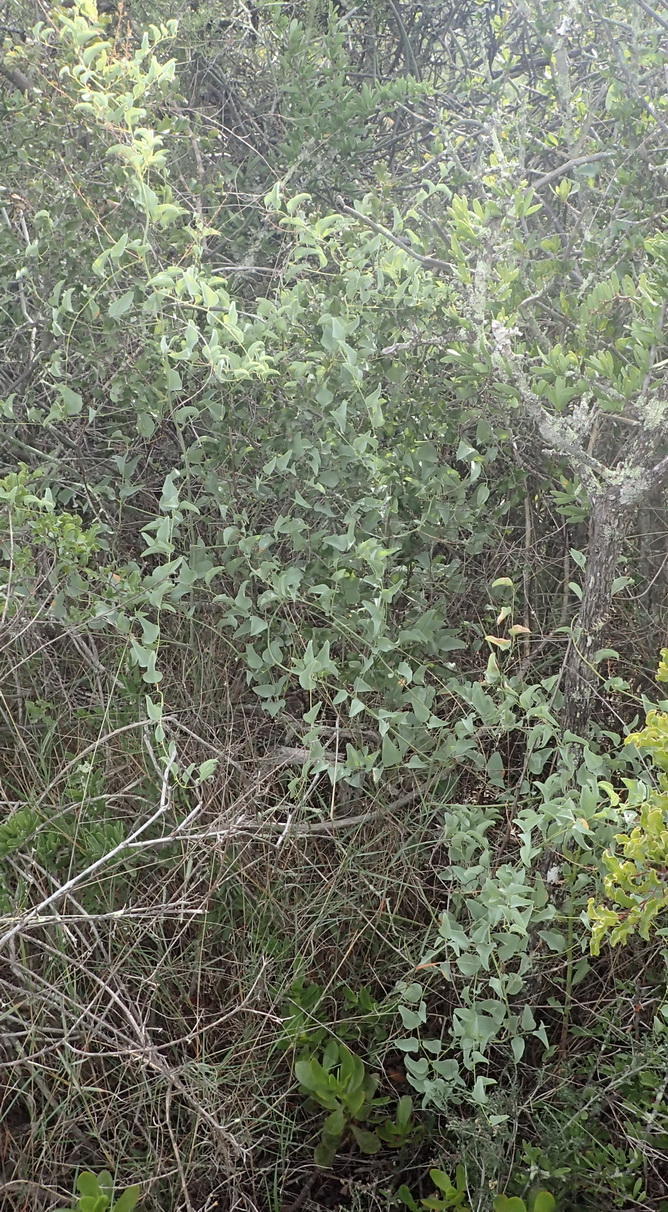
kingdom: Plantae
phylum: Tracheophyta
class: Liliopsida
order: Dioscoreales
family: Dioscoreaceae
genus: Dioscorea
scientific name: Dioscorea hemicrypta
